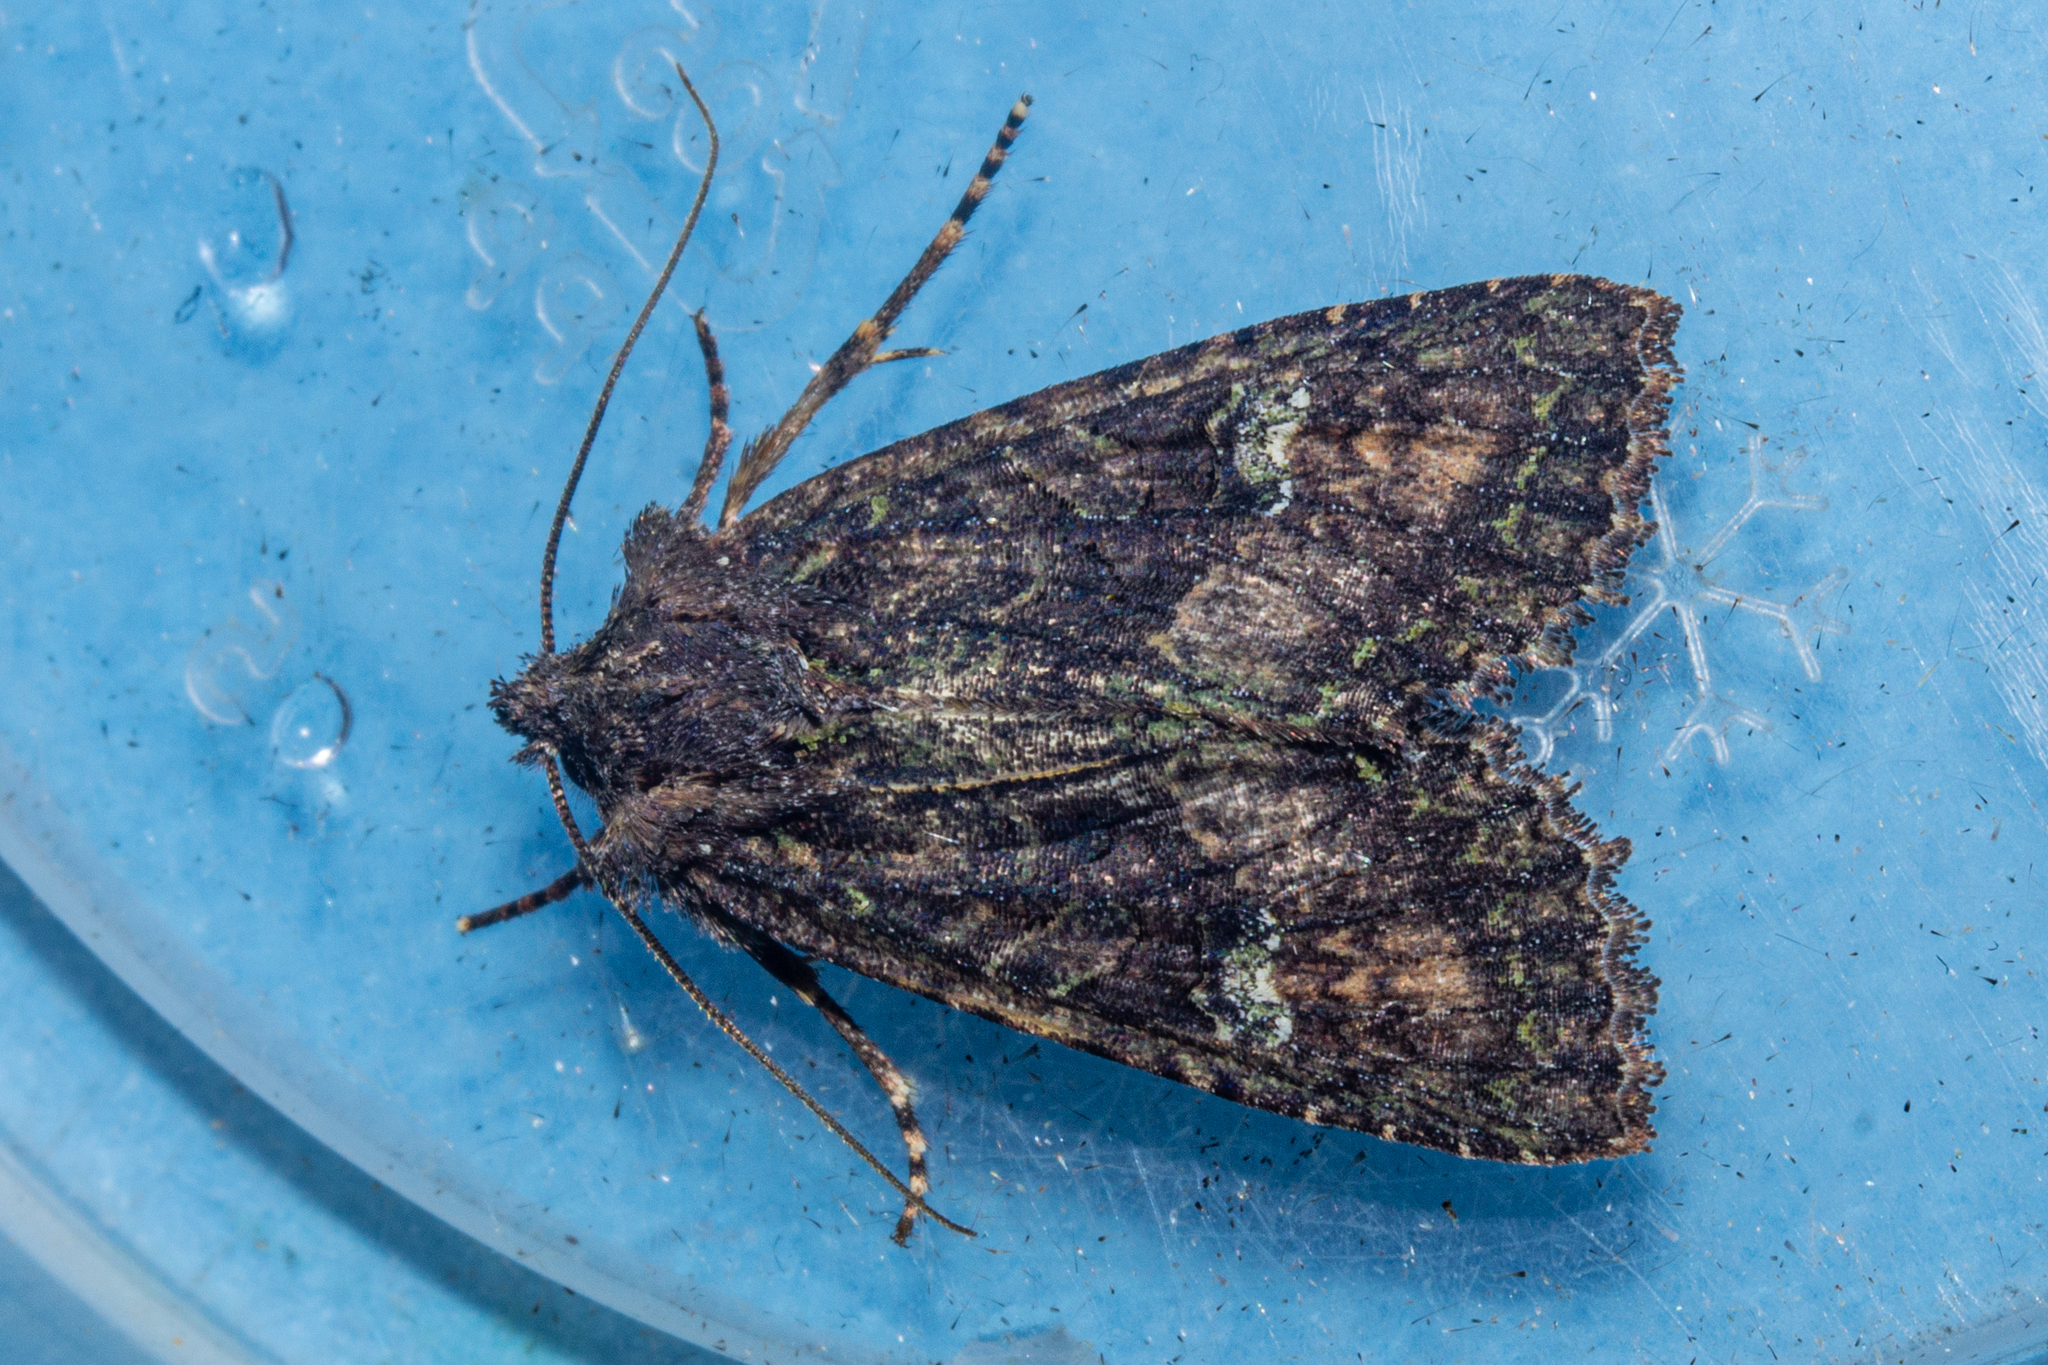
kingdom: Animalia
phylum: Arthropoda
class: Insecta
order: Lepidoptera
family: Noctuidae
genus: Meterana
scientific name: Meterana ochthistis
